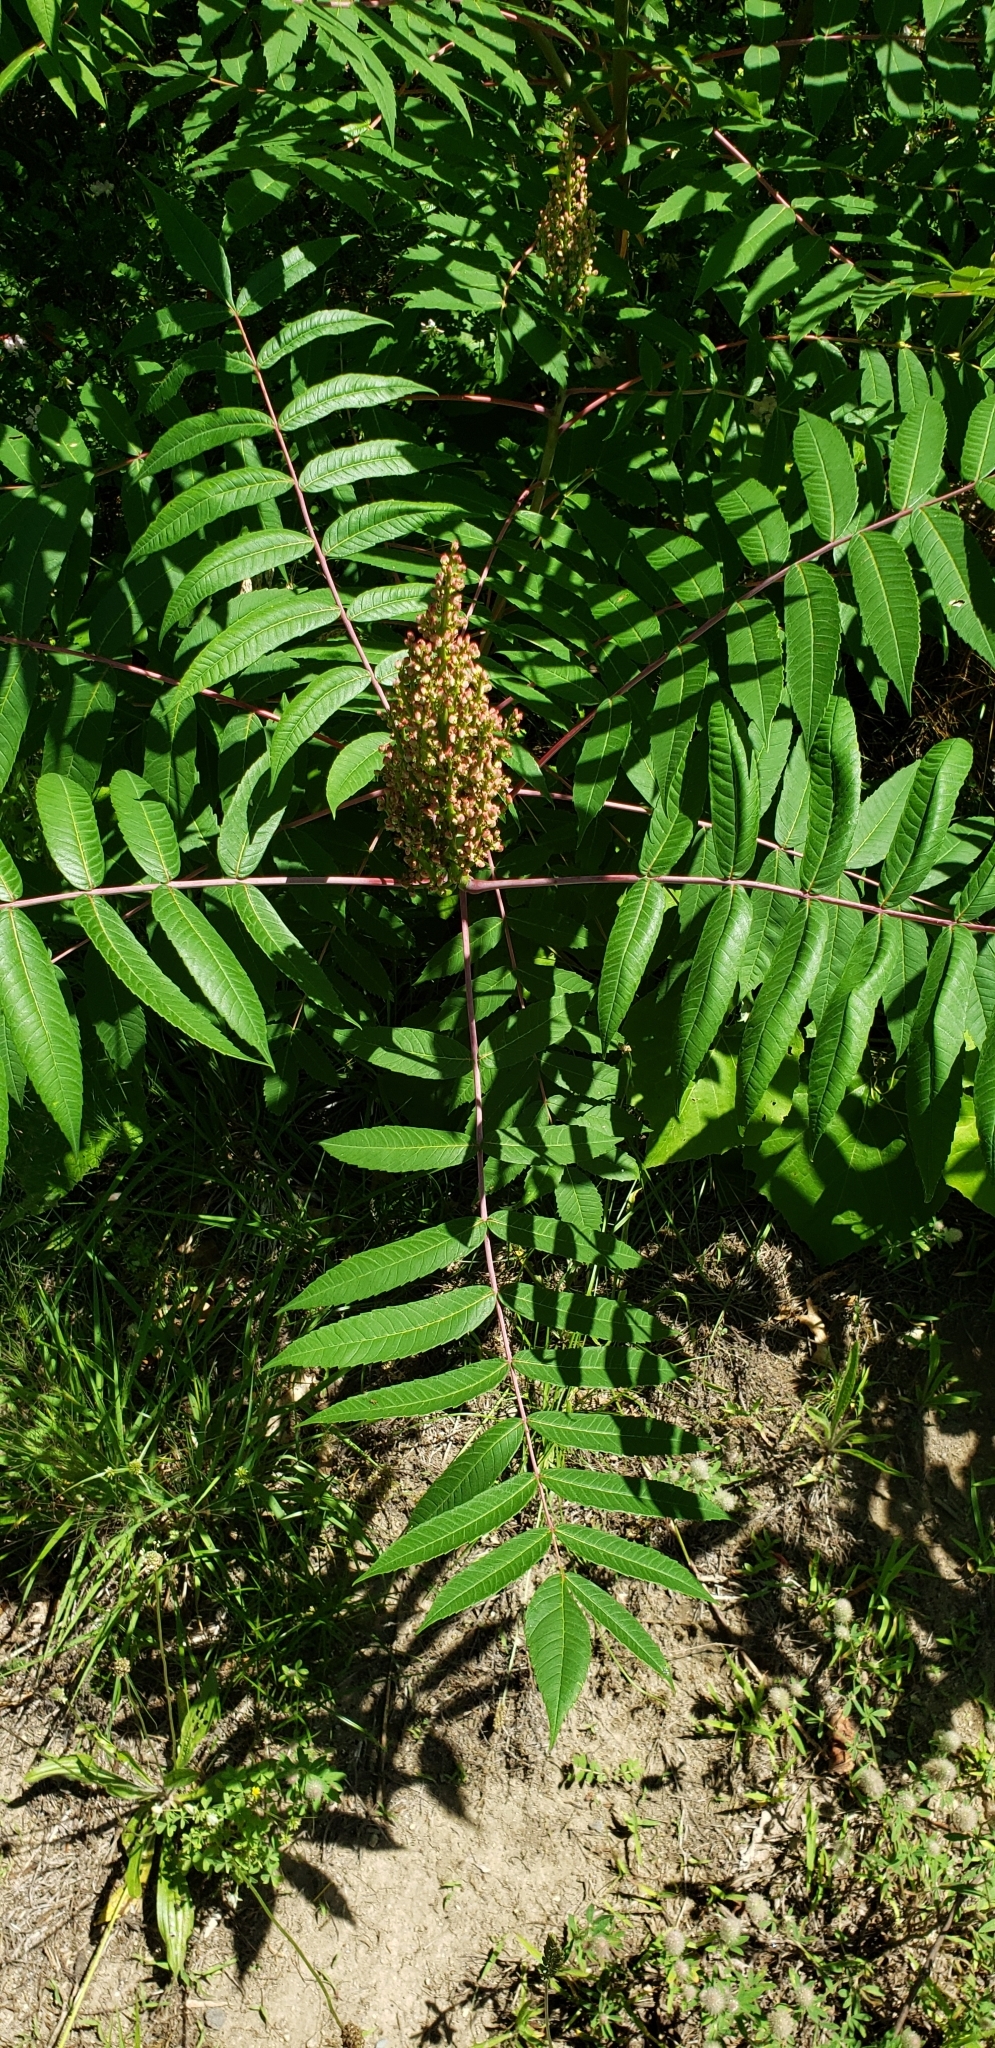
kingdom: Plantae
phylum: Tracheophyta
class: Magnoliopsida
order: Sapindales
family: Anacardiaceae
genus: Rhus
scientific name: Rhus glabra
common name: Scarlet sumac
